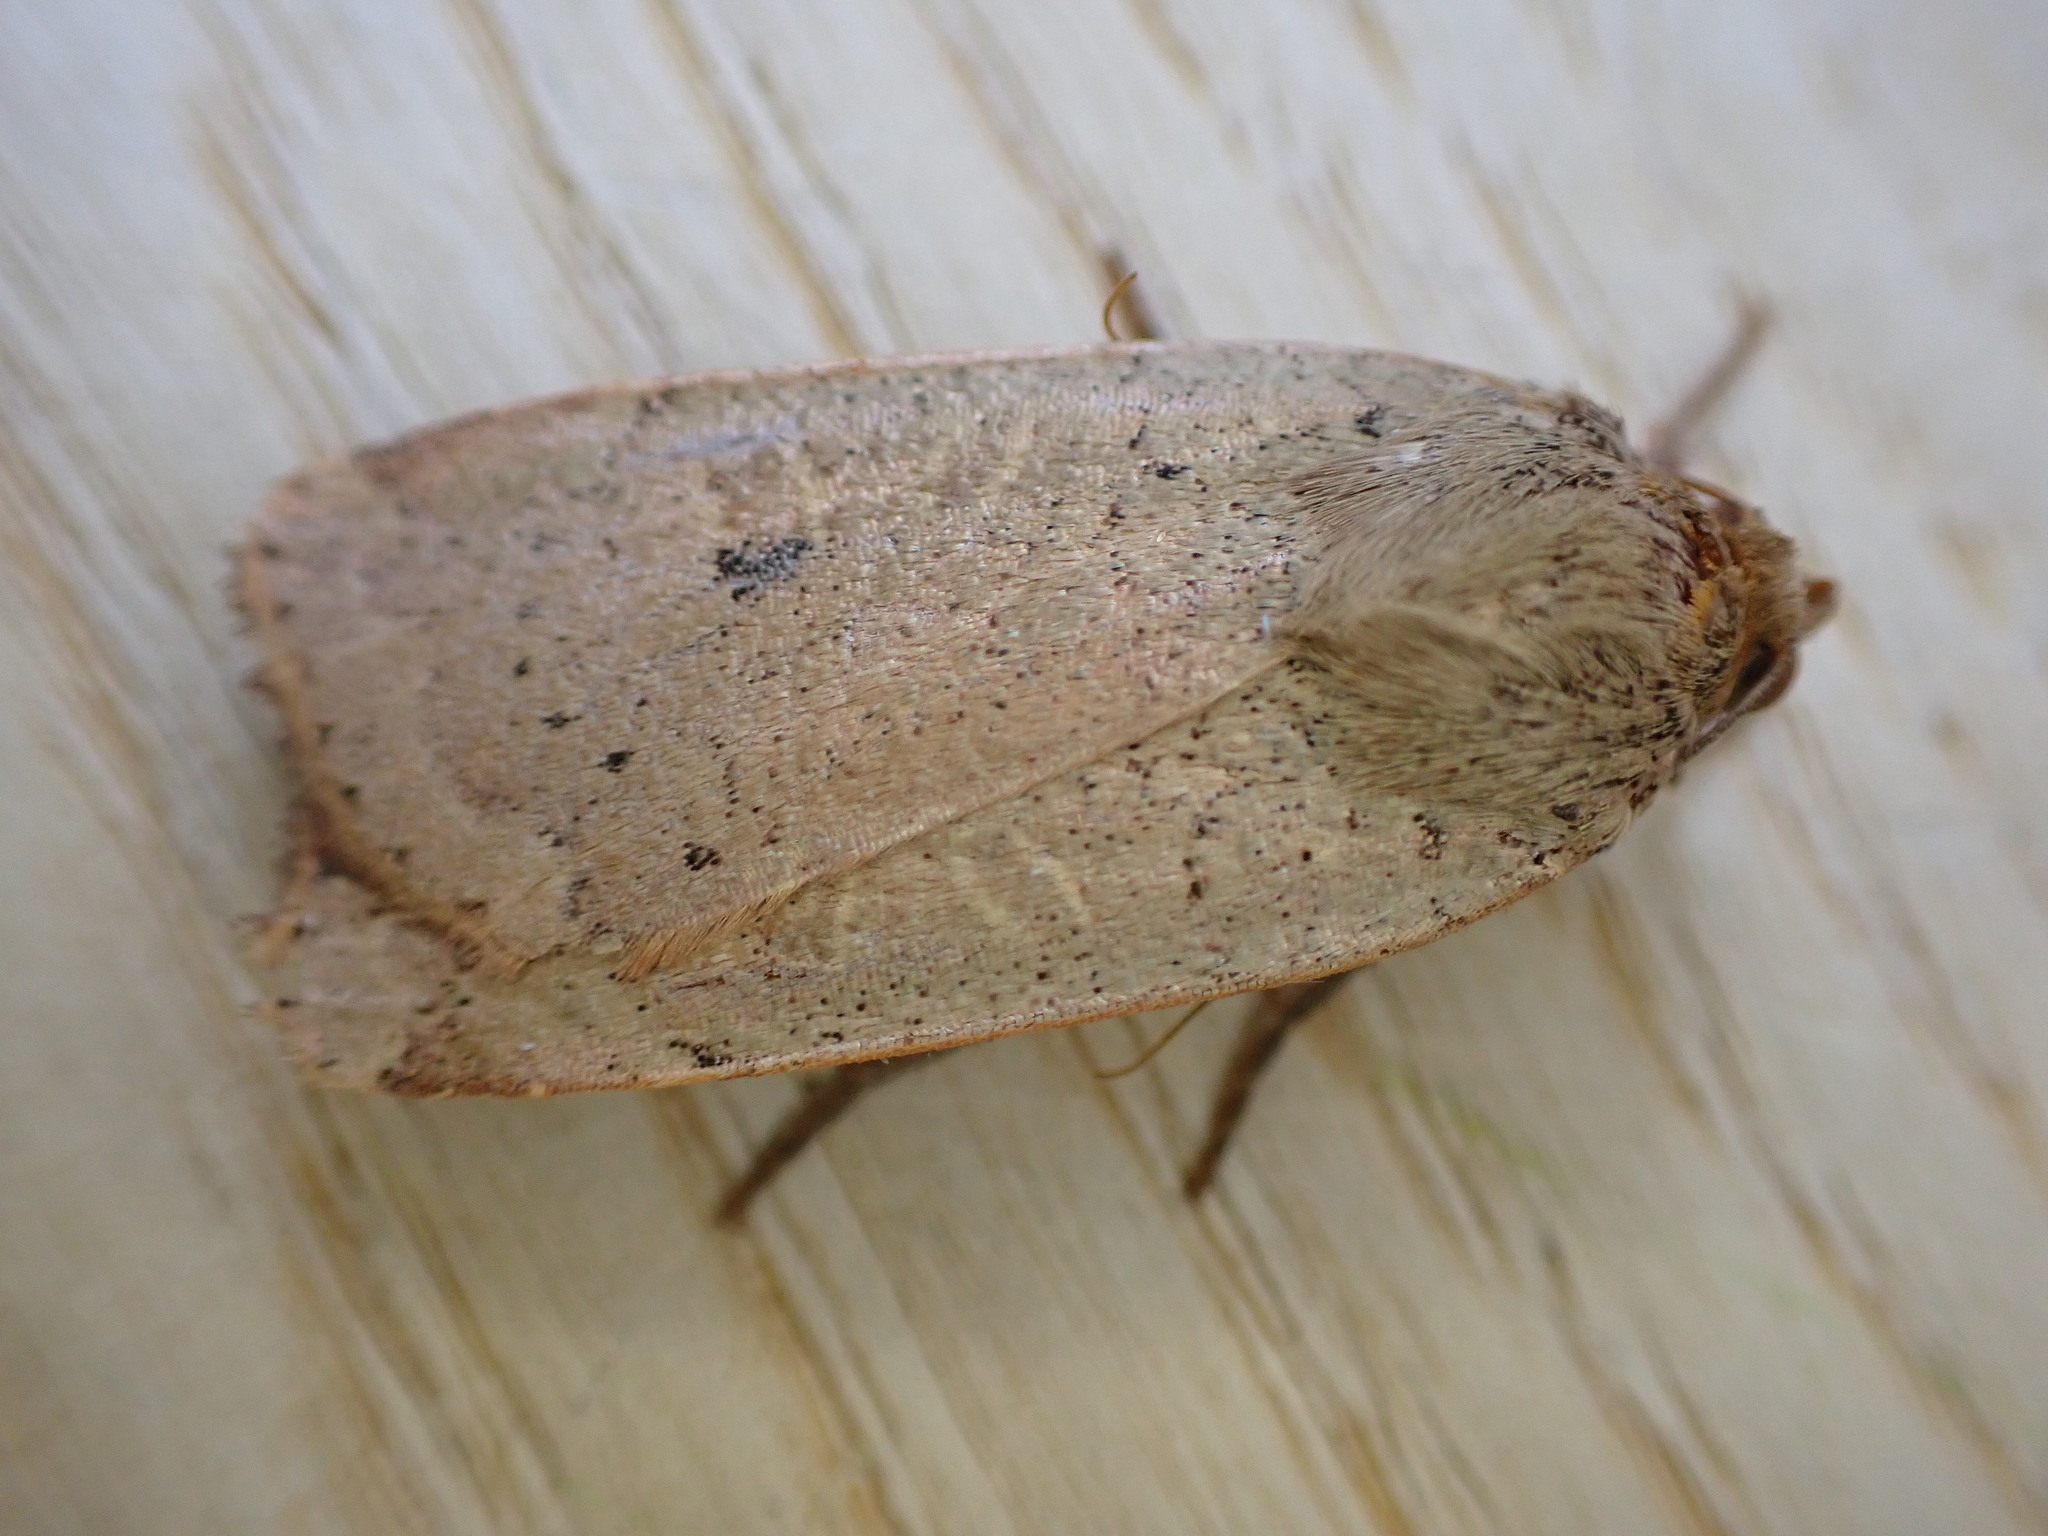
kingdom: Animalia
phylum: Arthropoda
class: Insecta
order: Lepidoptera
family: Noctuidae
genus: Noctua
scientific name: Noctua comes
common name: Lesser yellow underwing
